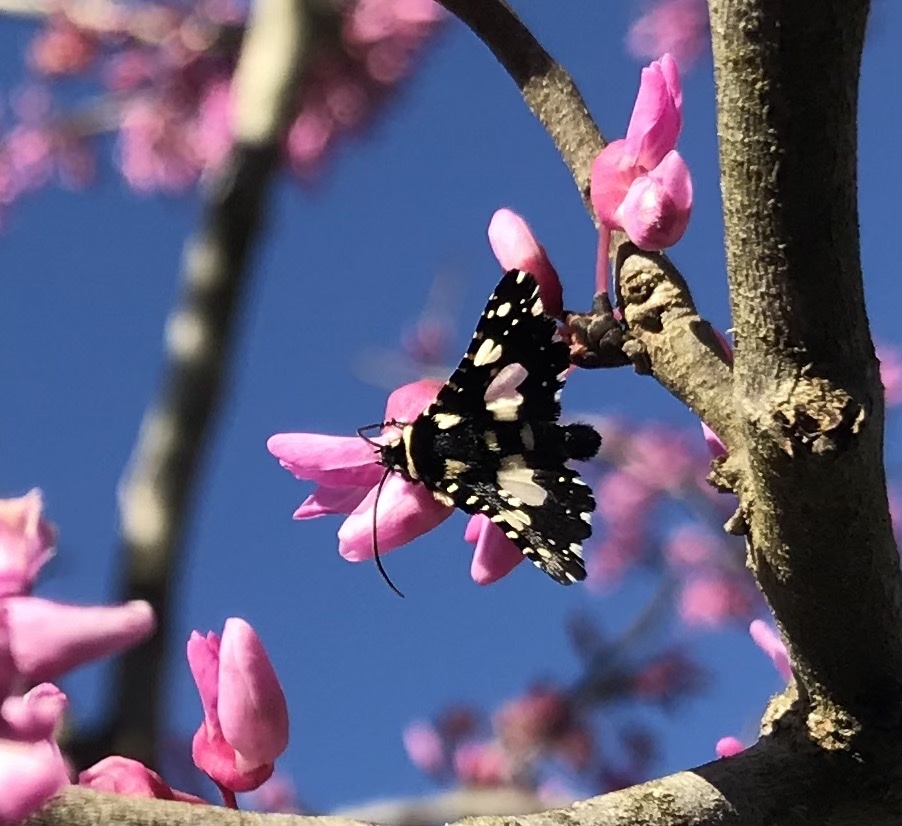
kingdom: Animalia
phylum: Arthropoda
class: Insecta
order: Lepidoptera
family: Thyrididae
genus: Pseudothyris
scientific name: Pseudothyris sepulchralis
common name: Mournful thyris moth
